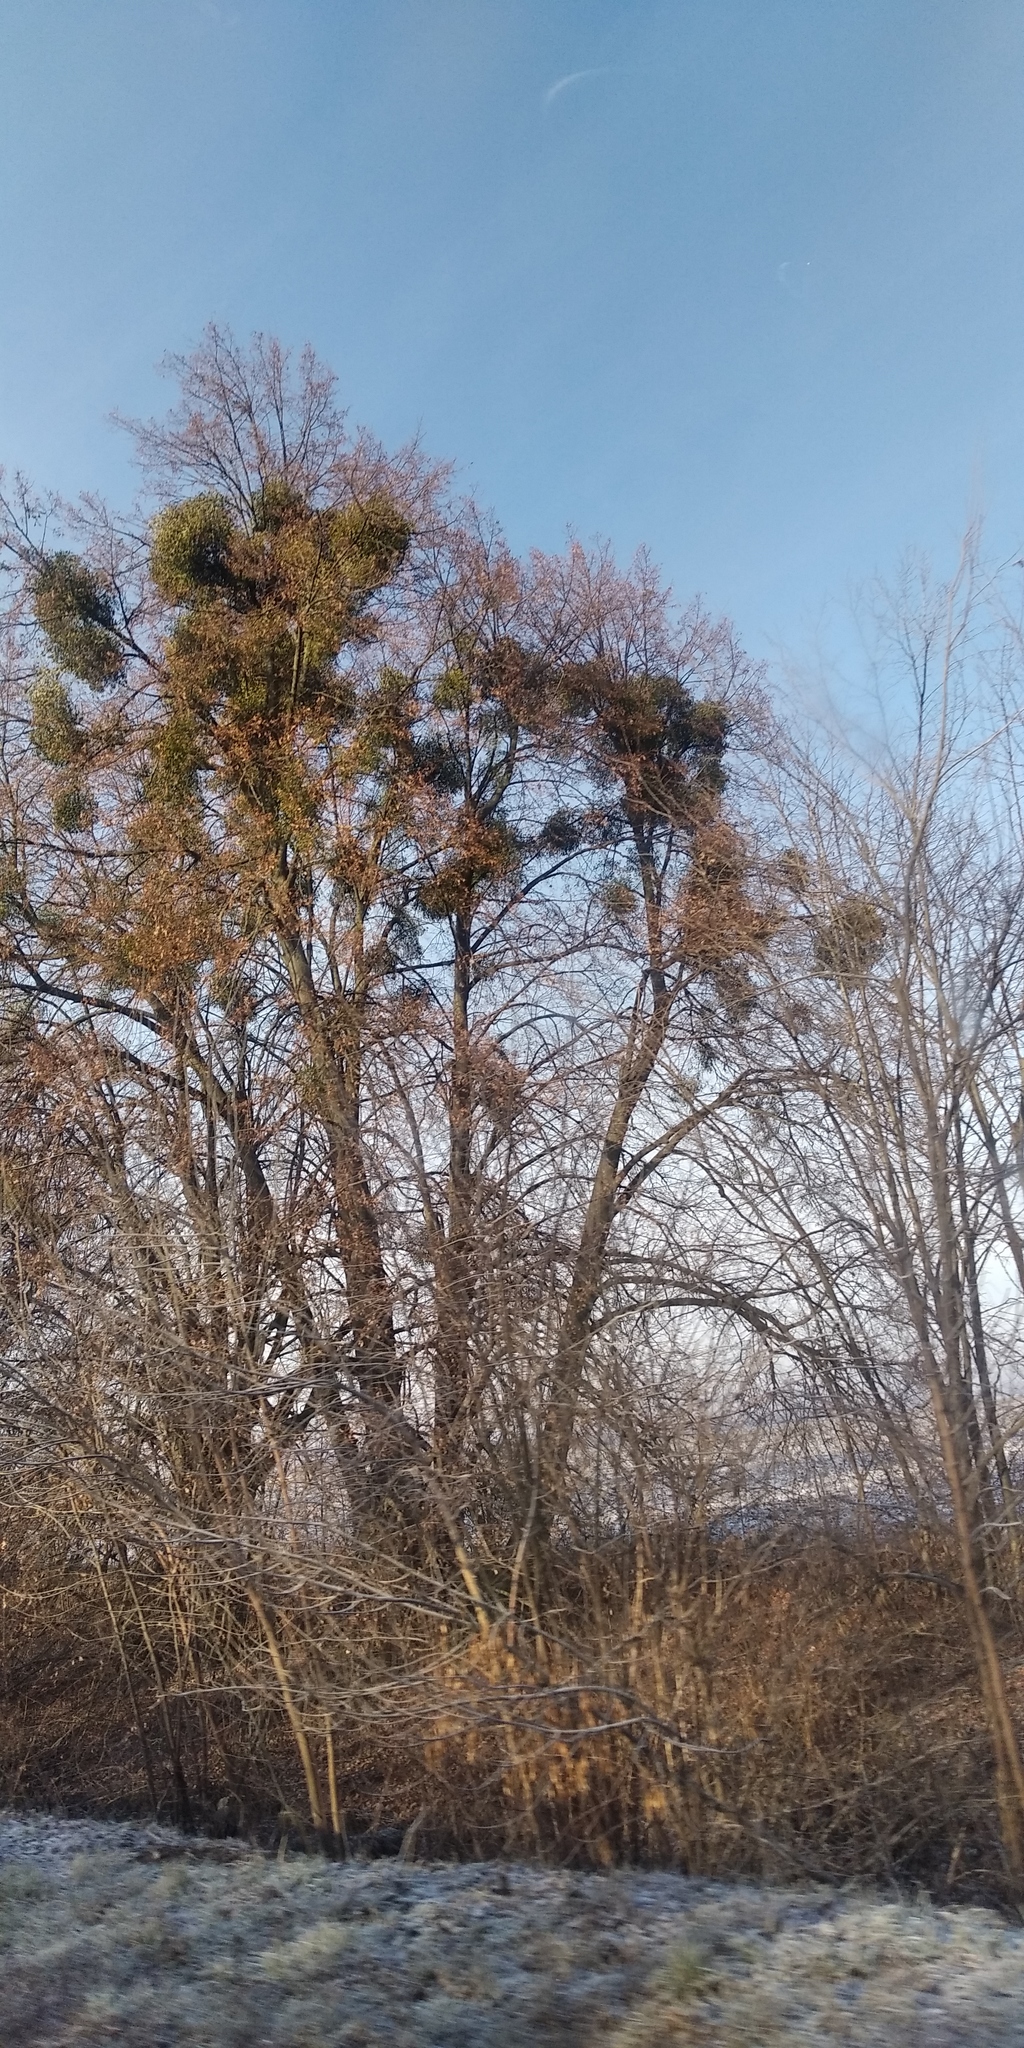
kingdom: Plantae
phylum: Tracheophyta
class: Magnoliopsida
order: Santalales
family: Viscaceae
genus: Viscum
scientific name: Viscum album
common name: Mistletoe
